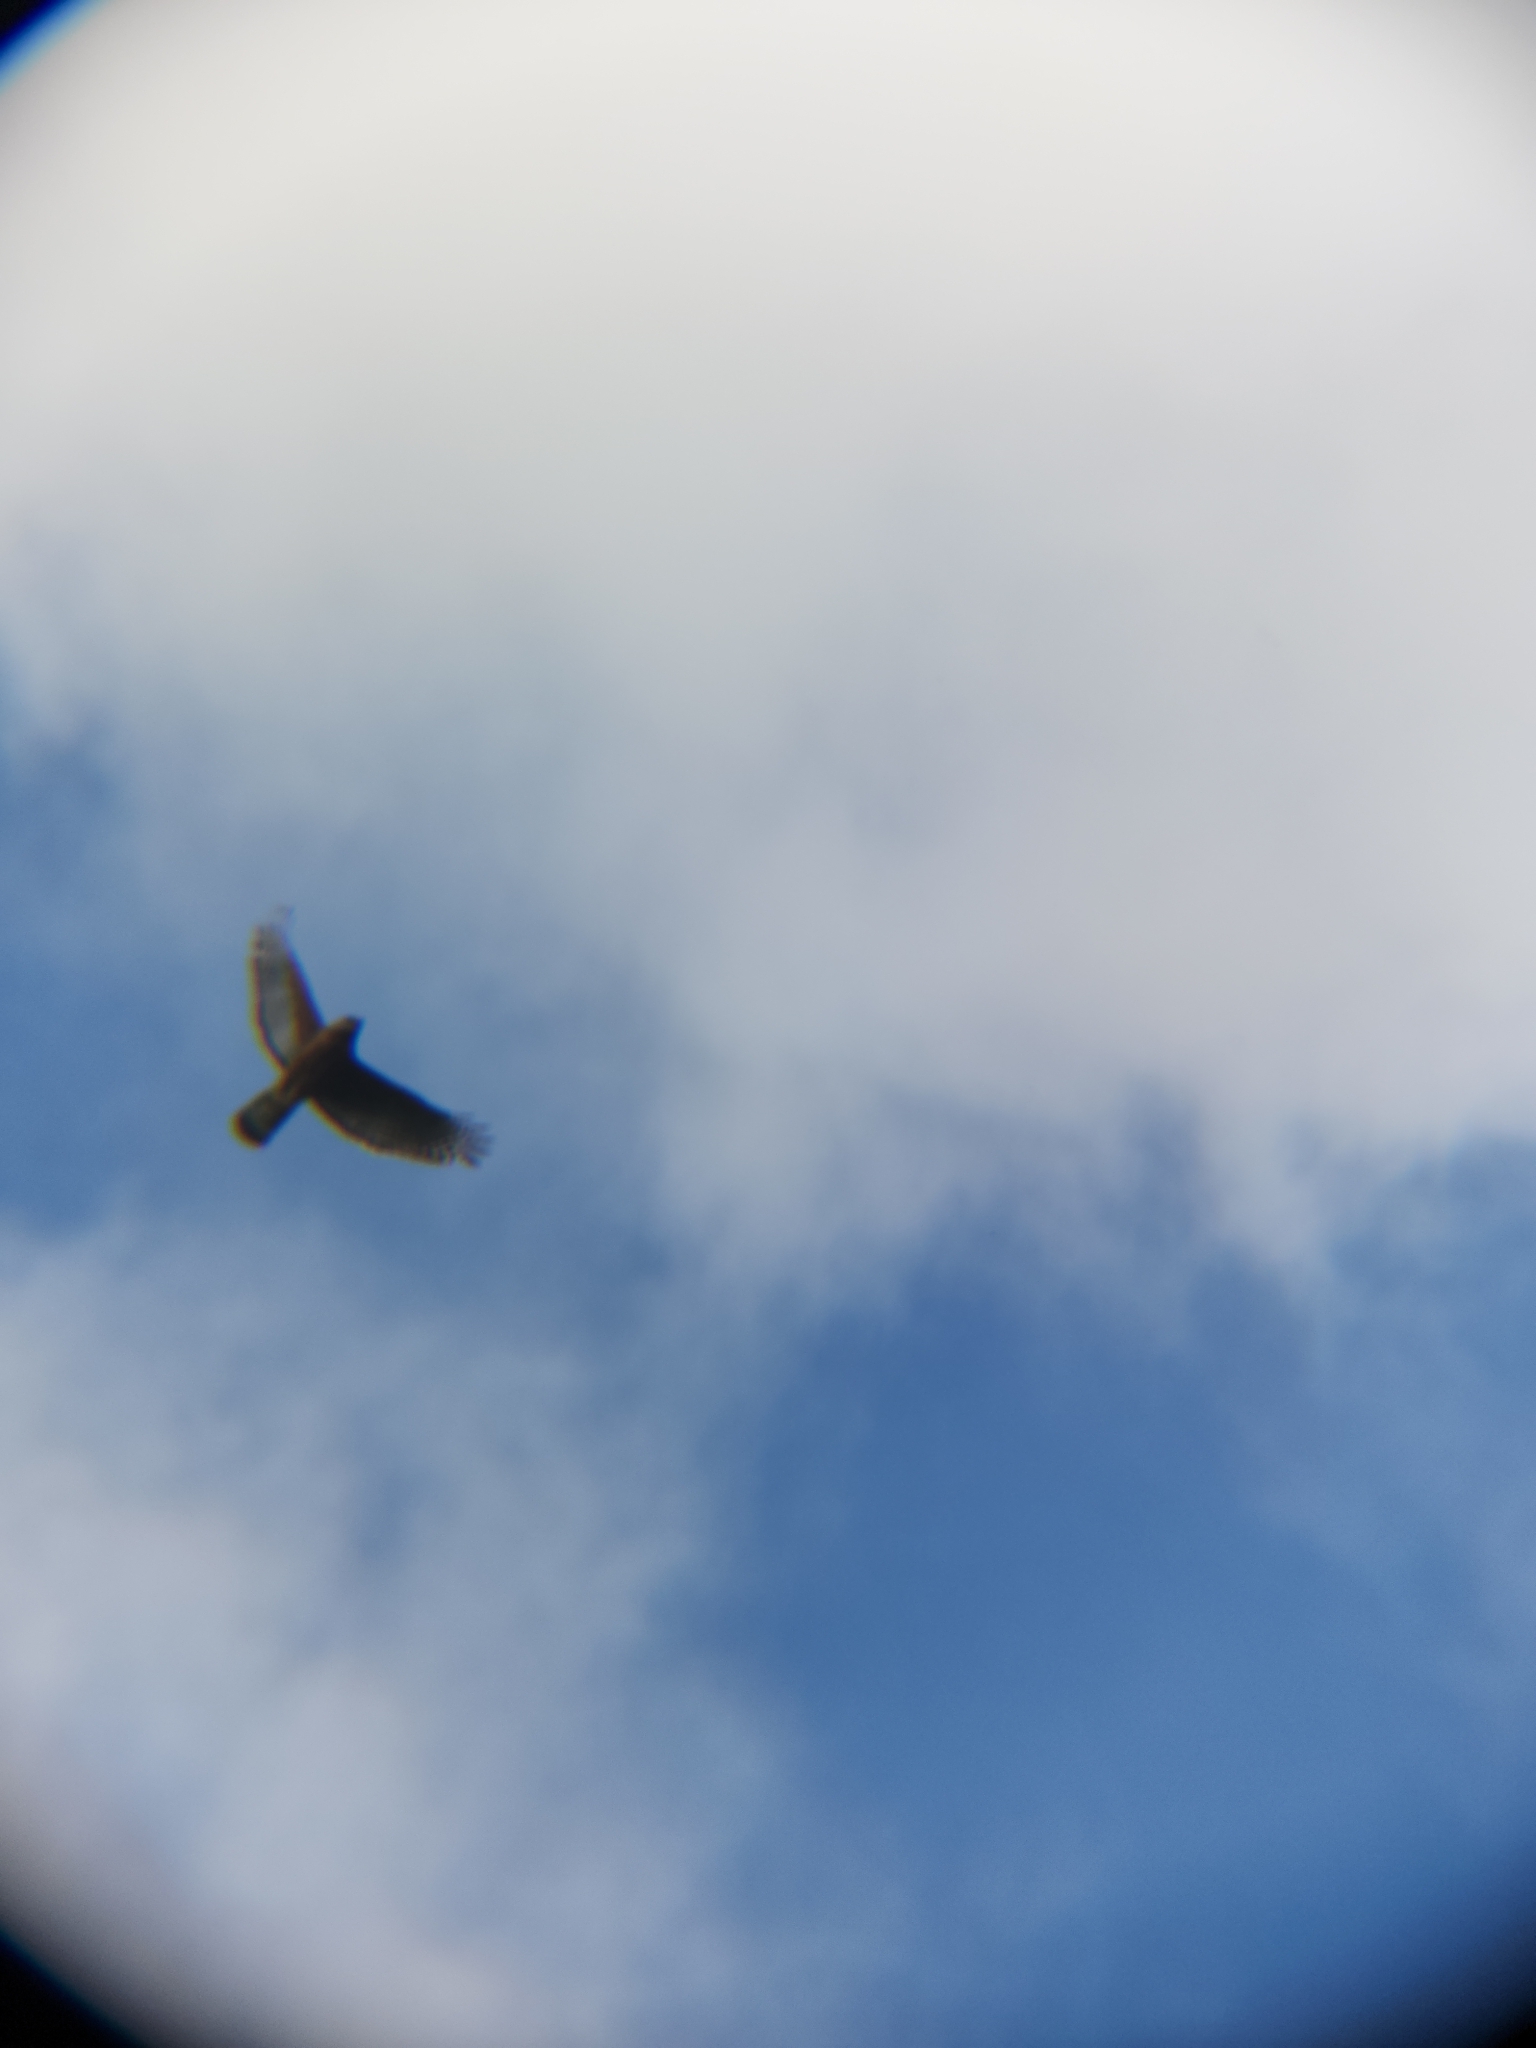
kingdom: Animalia
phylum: Chordata
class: Aves
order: Accipitriformes
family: Accipitridae
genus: Buteo
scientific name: Buteo lineatus
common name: Red-shouldered hawk
